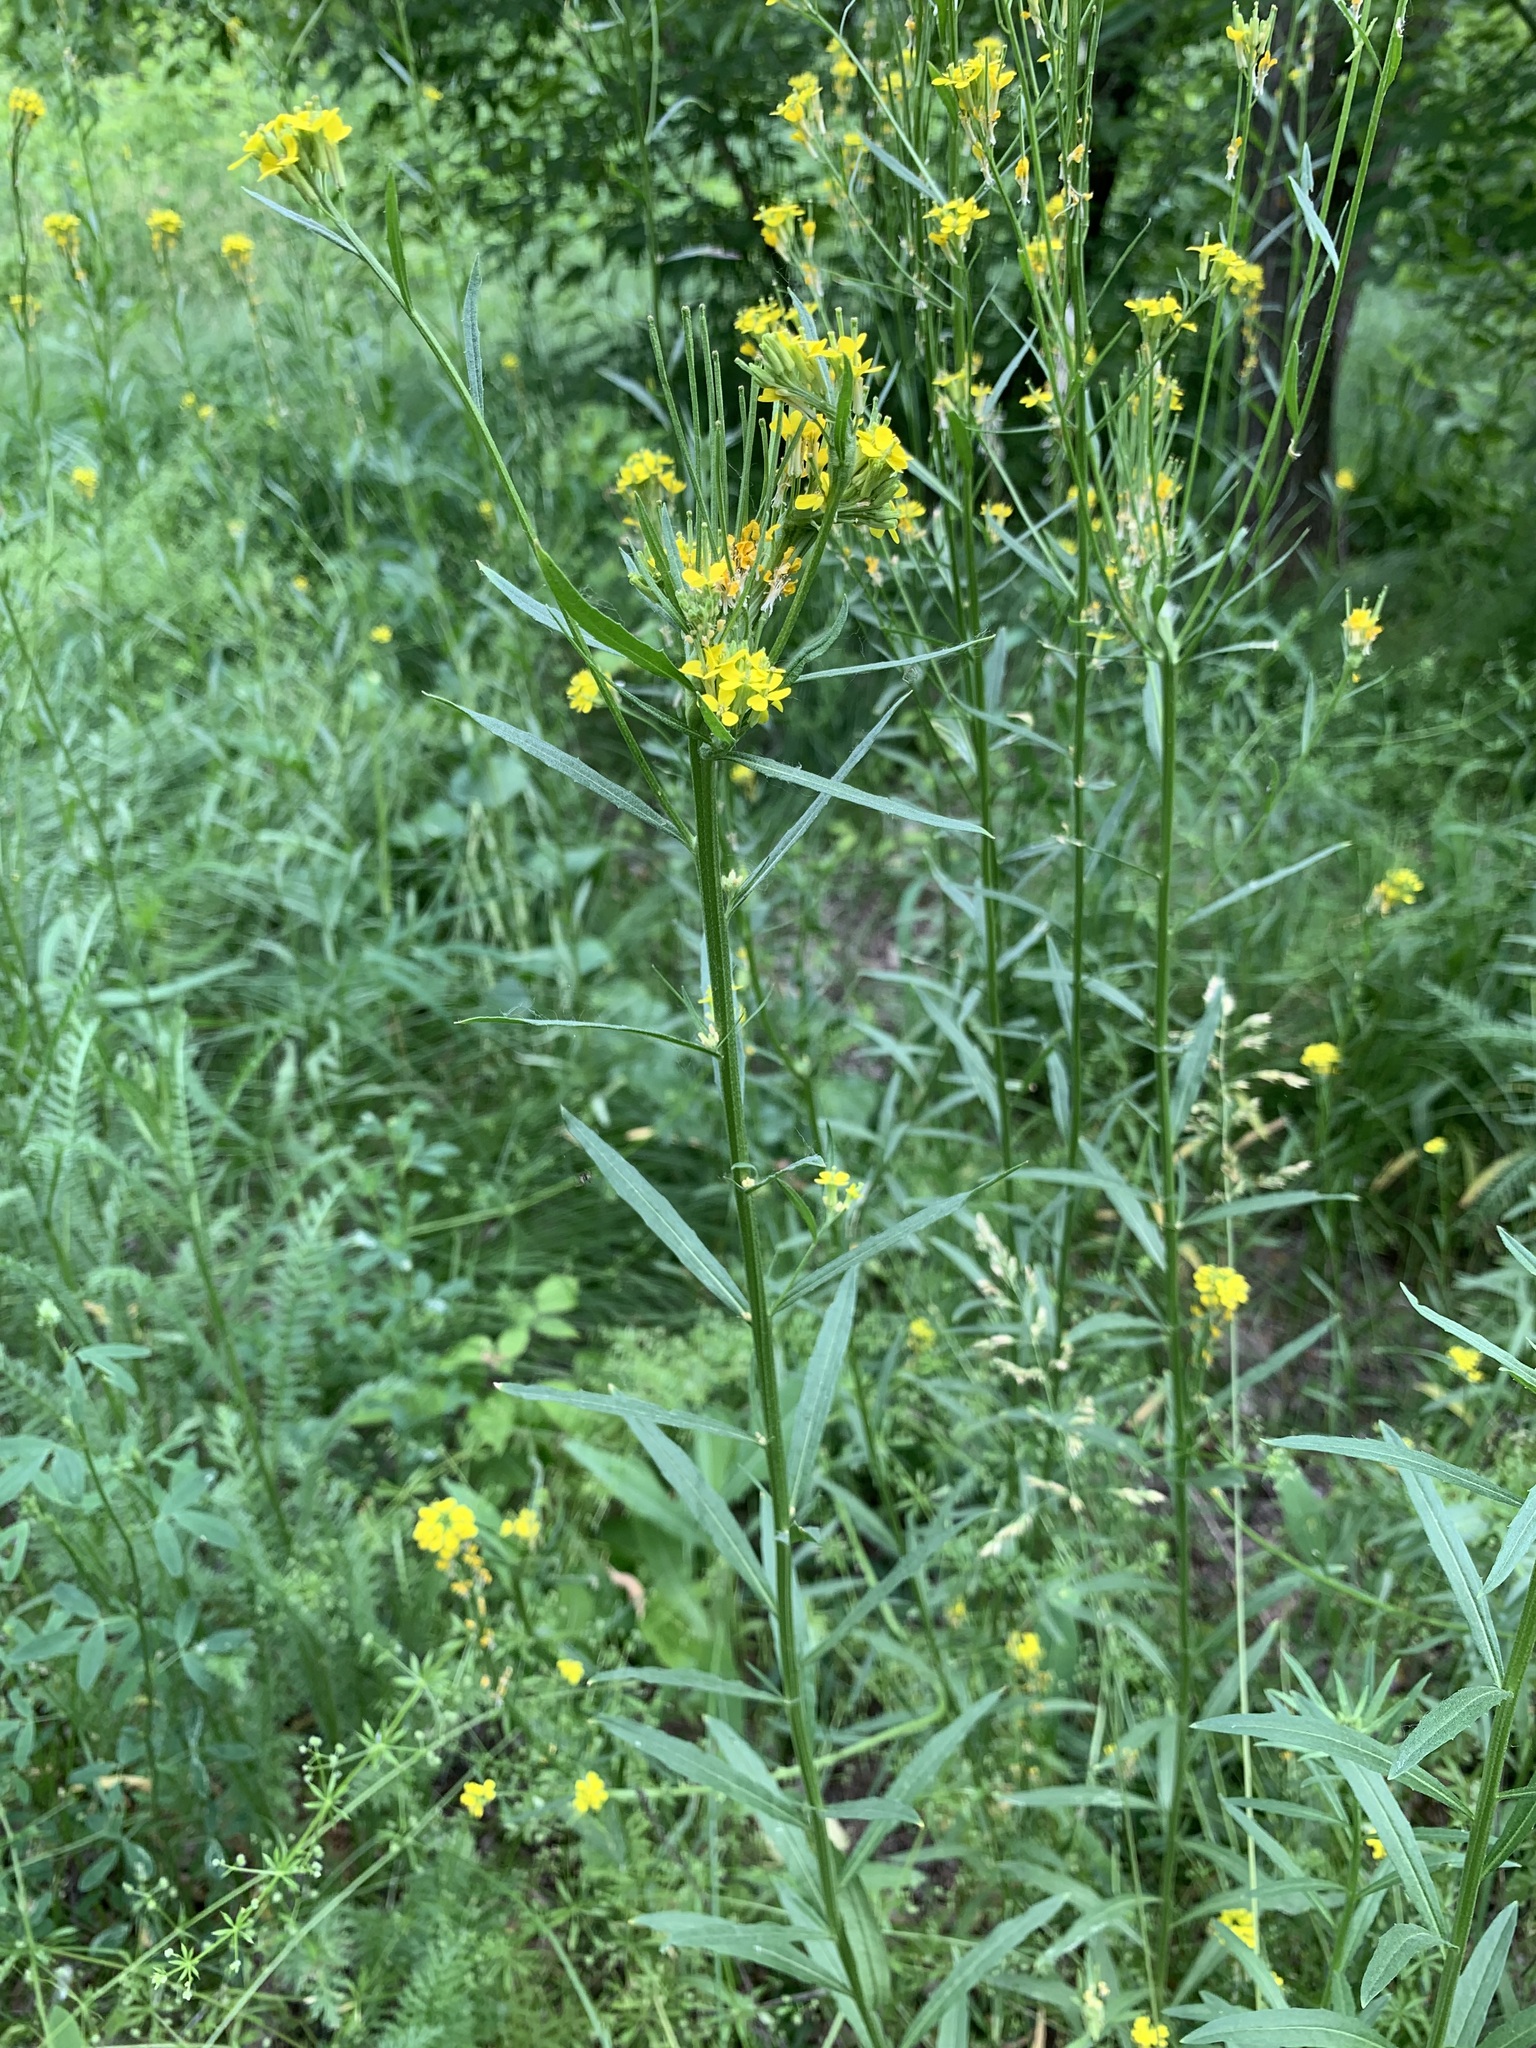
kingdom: Plantae
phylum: Tracheophyta
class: Magnoliopsida
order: Brassicales
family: Brassicaceae
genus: Erysimum
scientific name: Erysimum cheiranthoides
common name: Treacle mustard
